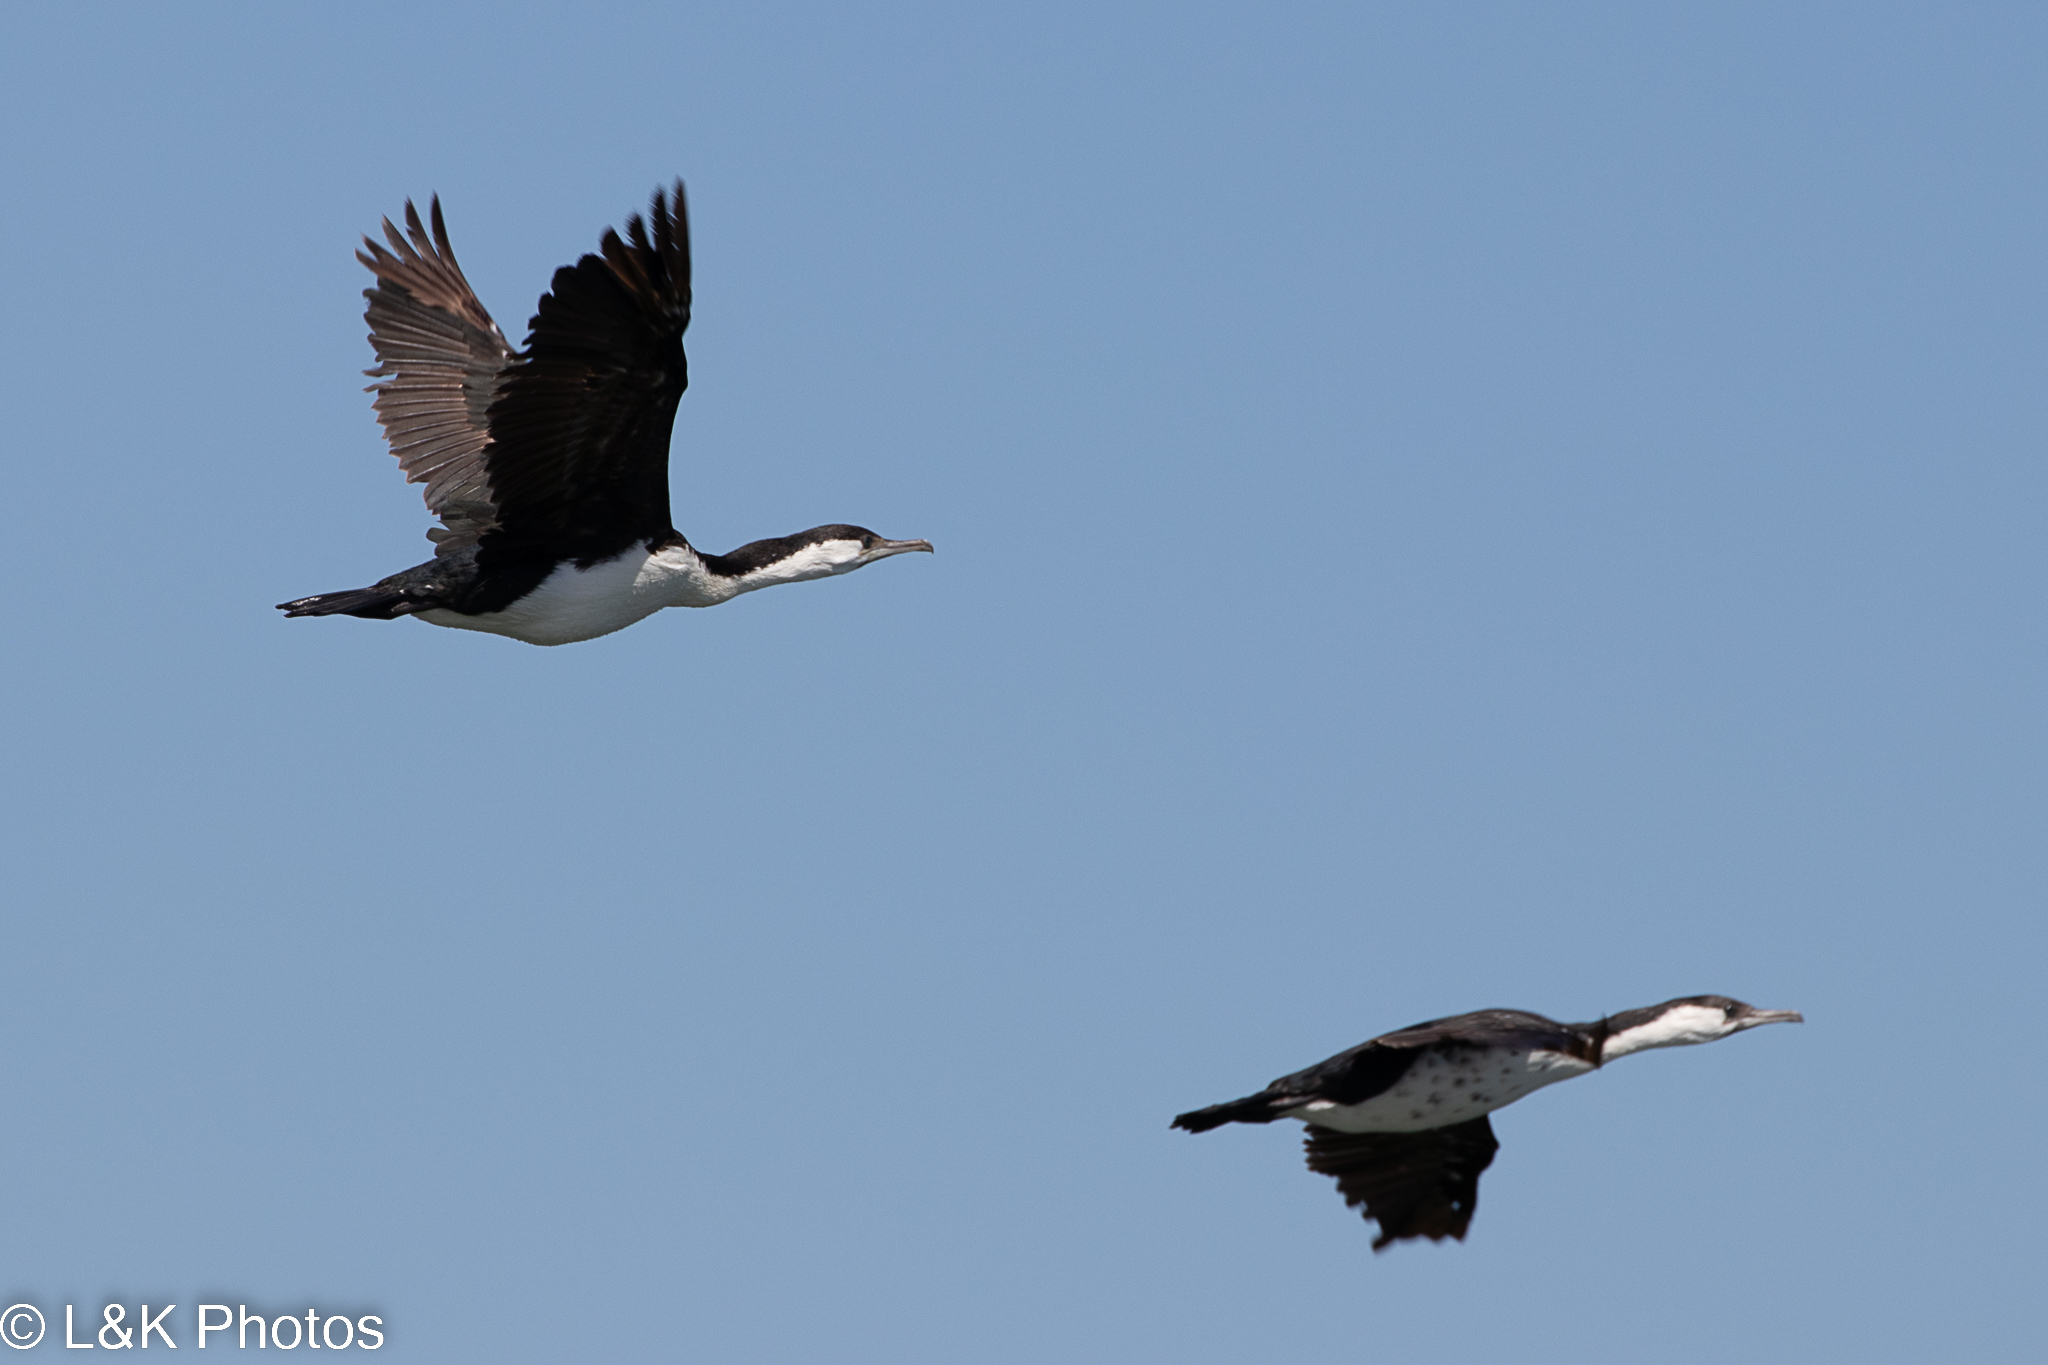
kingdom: Animalia
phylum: Chordata
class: Aves
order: Suliformes
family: Phalacrocoracidae
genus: Phalacrocorax
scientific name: Phalacrocorax fuscescens
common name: Black-faced cormorant
